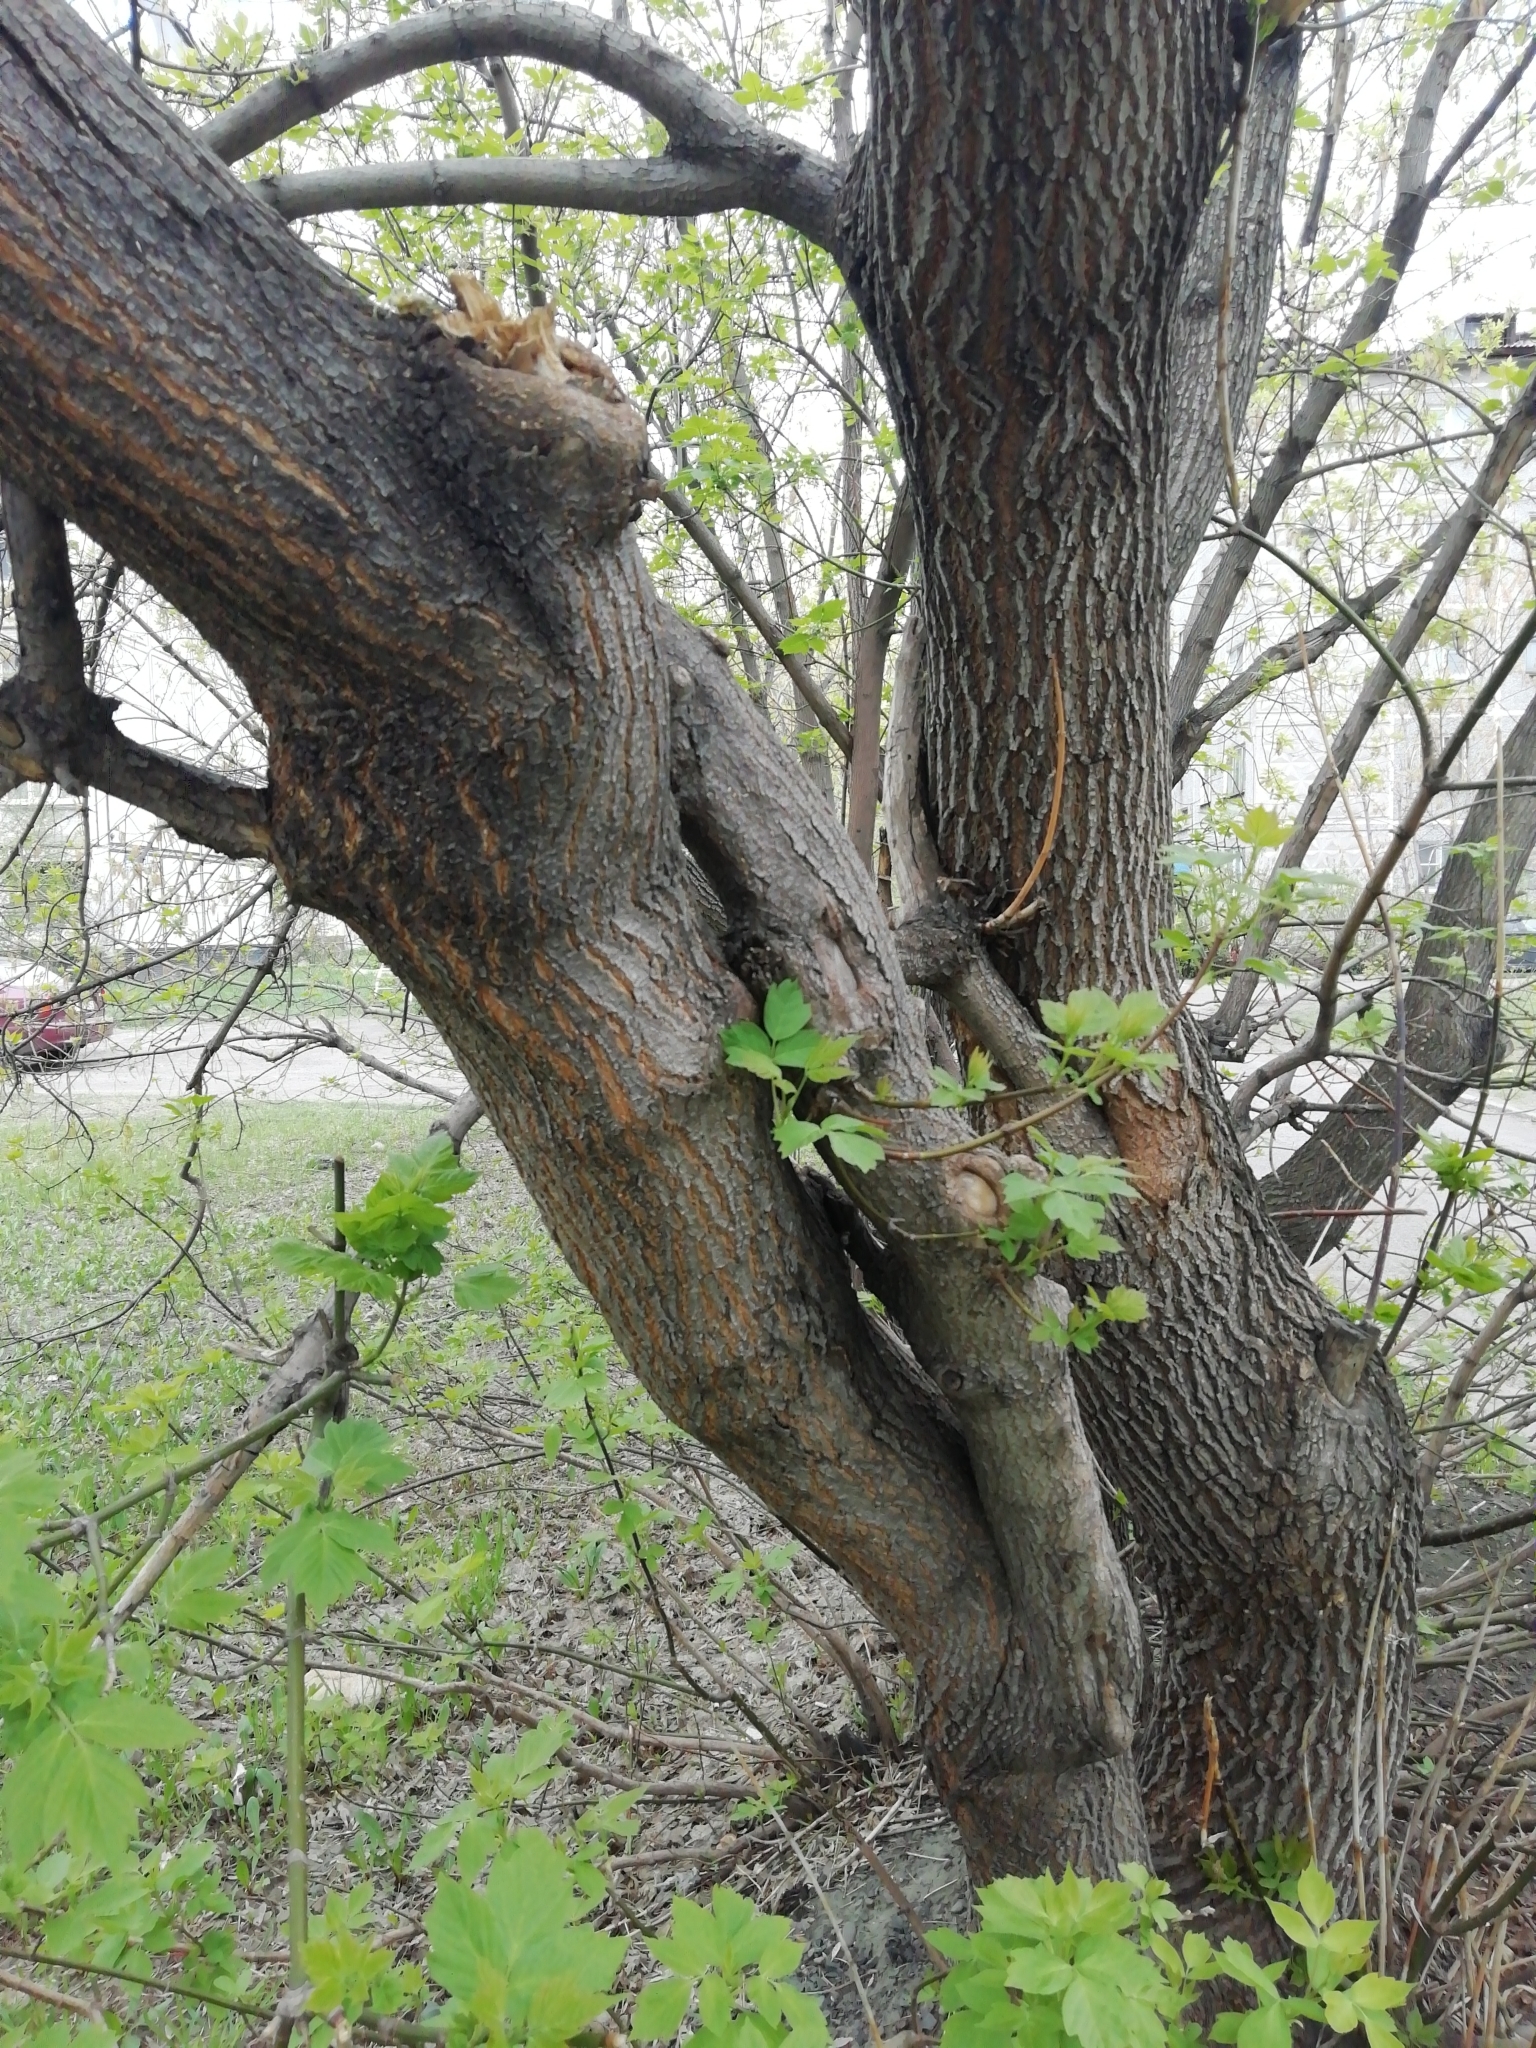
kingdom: Plantae
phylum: Tracheophyta
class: Magnoliopsida
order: Sapindales
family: Sapindaceae
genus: Acer
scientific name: Acer negundo
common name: Ashleaf maple
